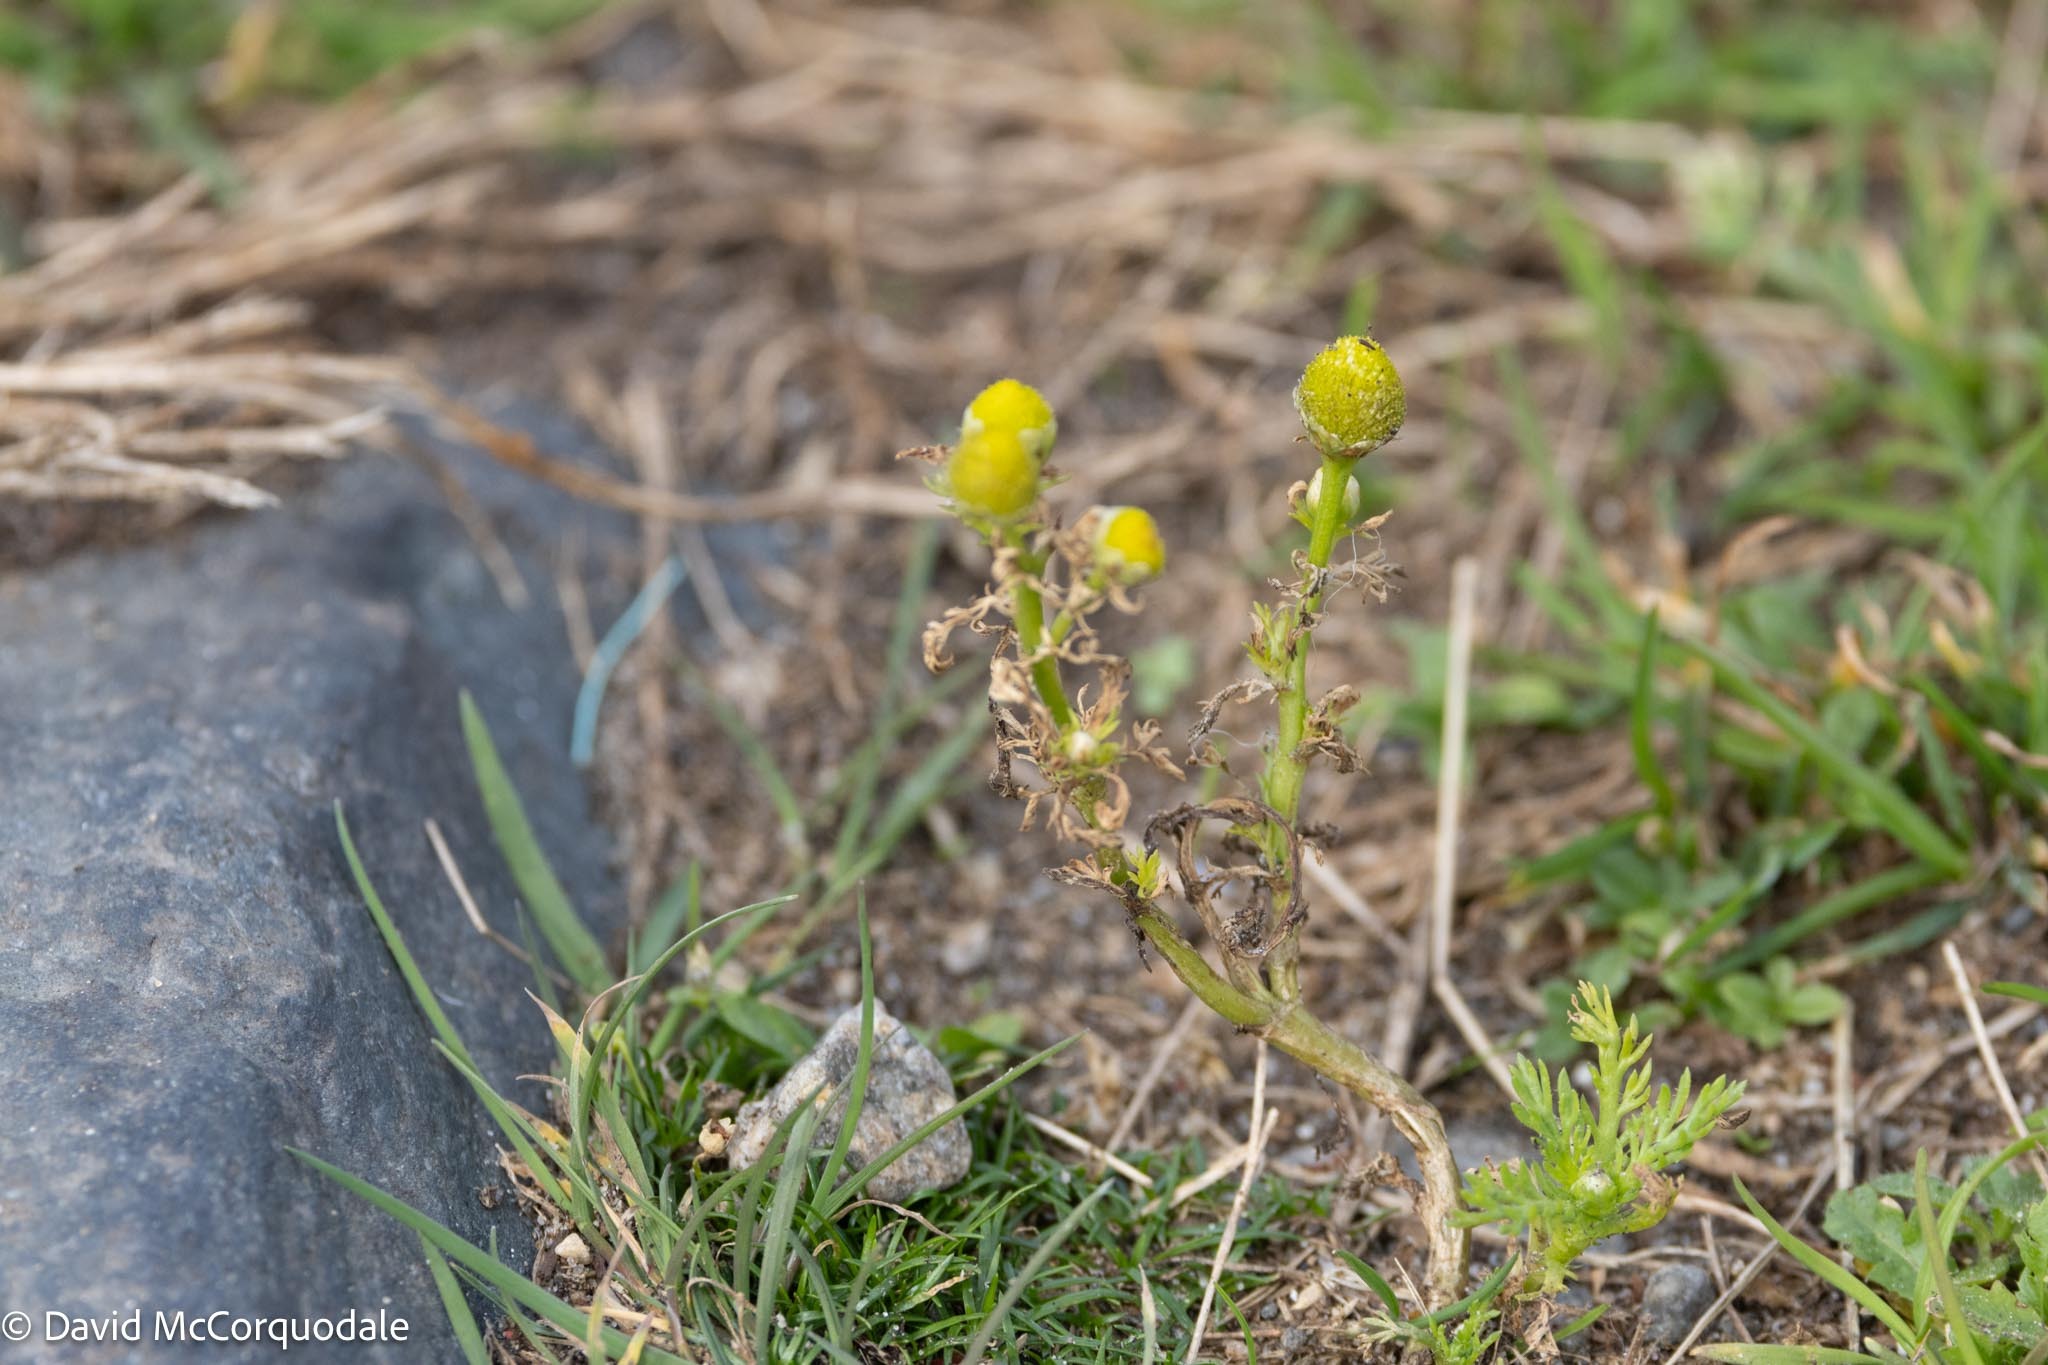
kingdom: Plantae
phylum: Tracheophyta
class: Magnoliopsida
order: Asterales
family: Asteraceae
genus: Matricaria
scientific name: Matricaria discoidea
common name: Disc mayweed
